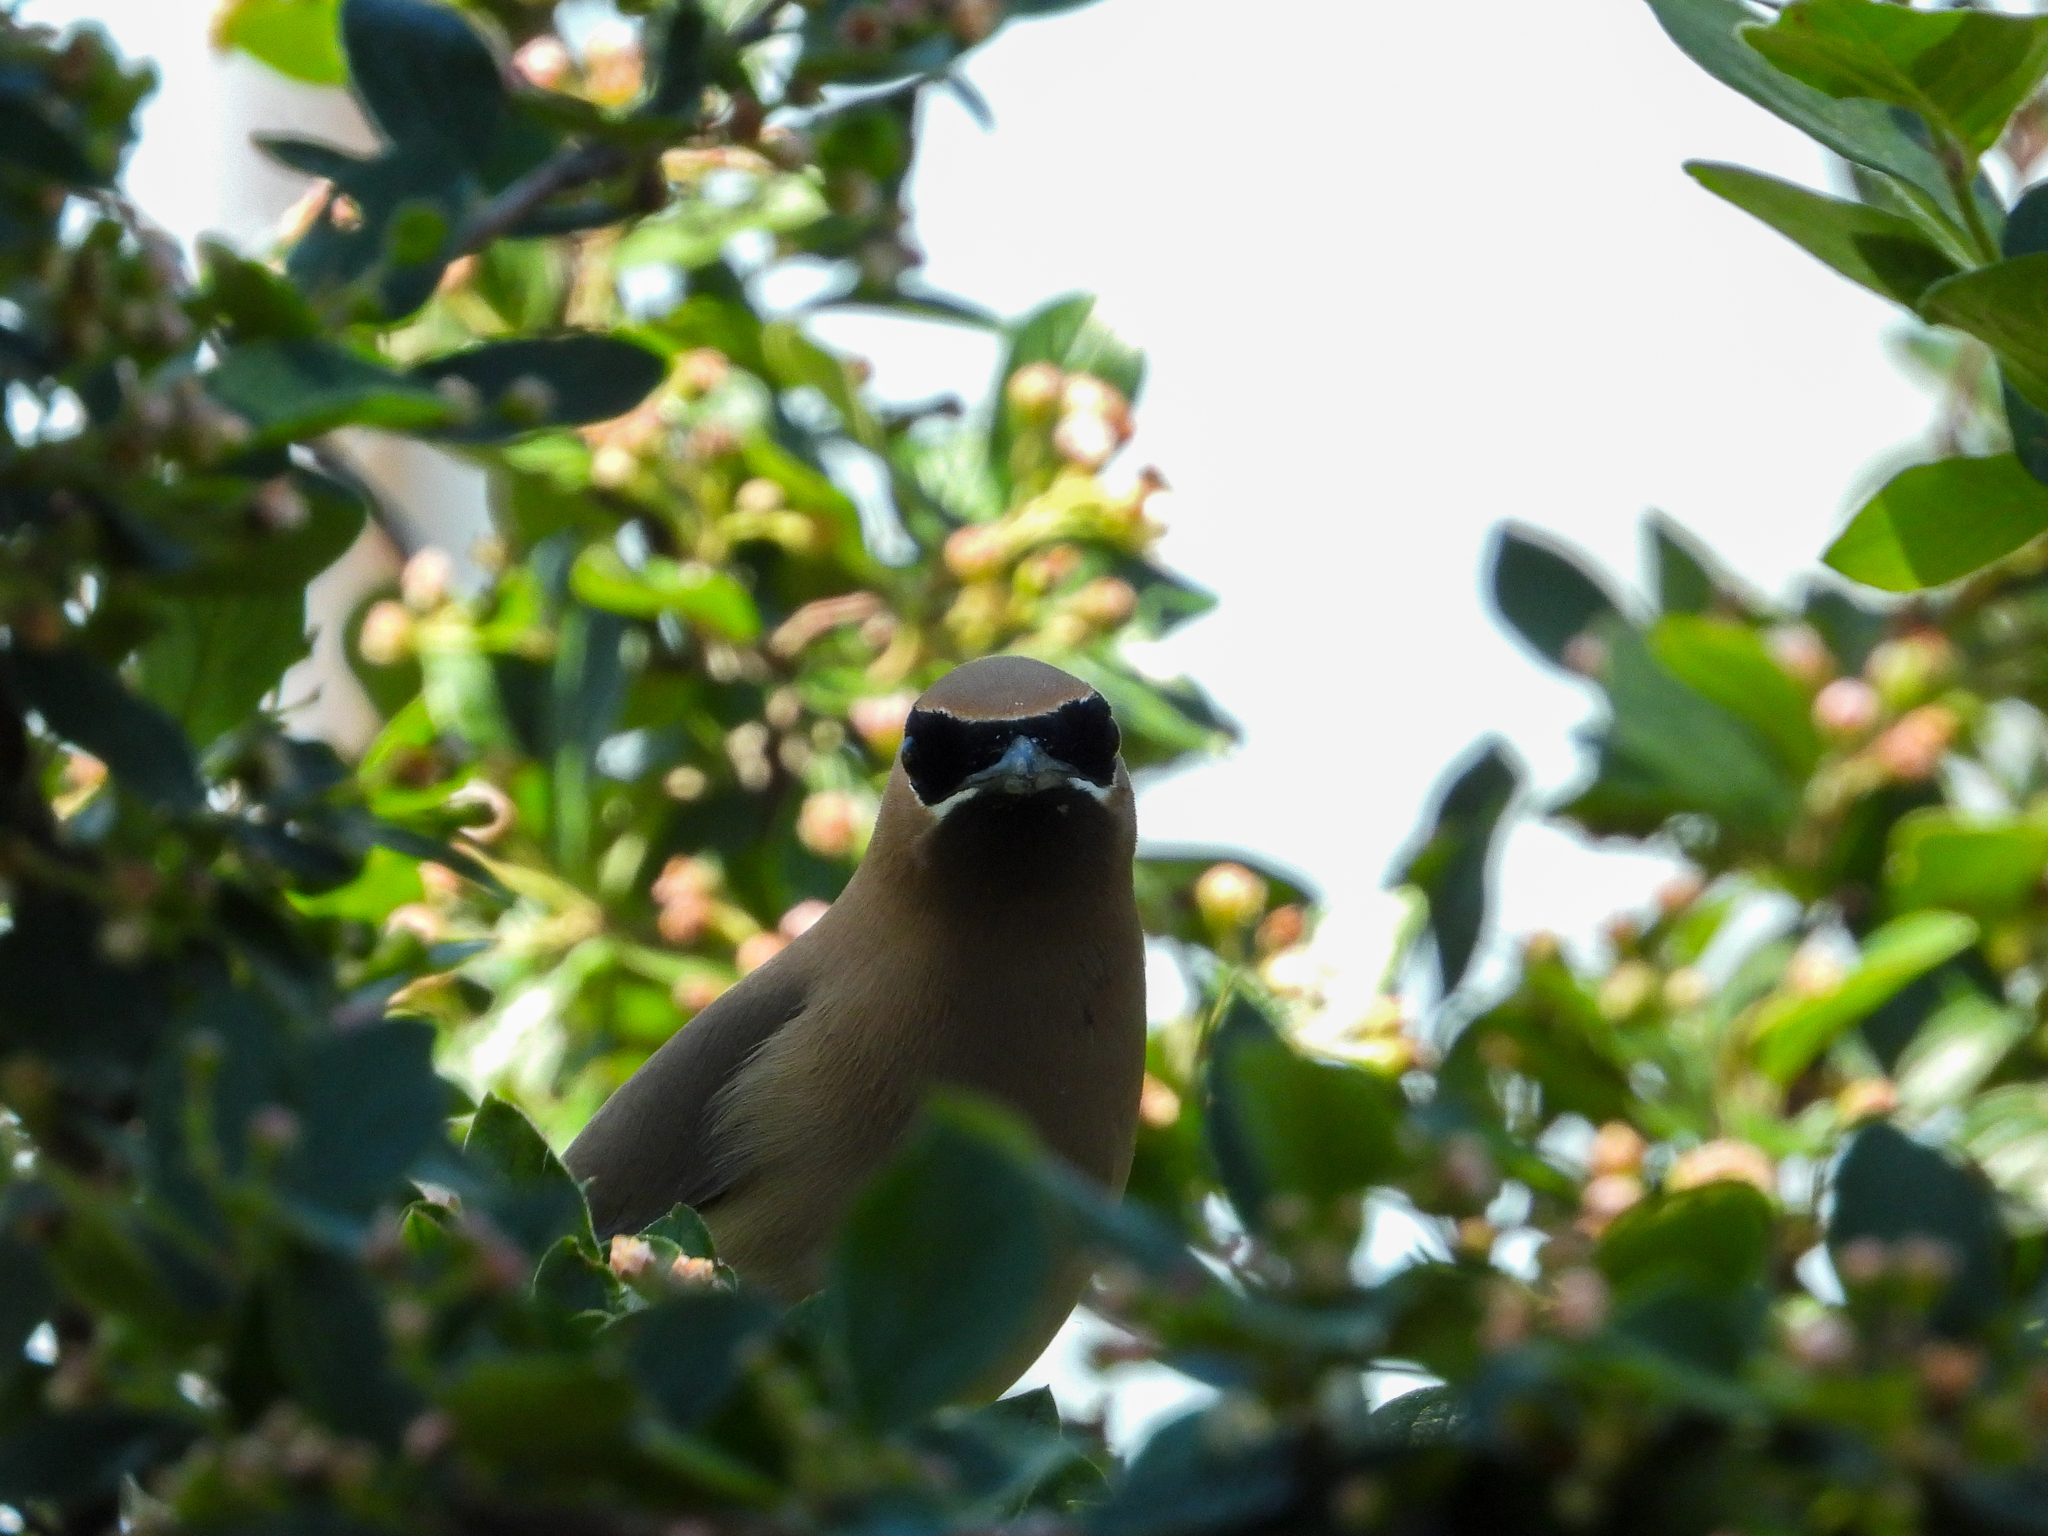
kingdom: Animalia
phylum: Chordata
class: Aves
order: Passeriformes
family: Bombycillidae
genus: Bombycilla
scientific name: Bombycilla cedrorum
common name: Cedar waxwing
